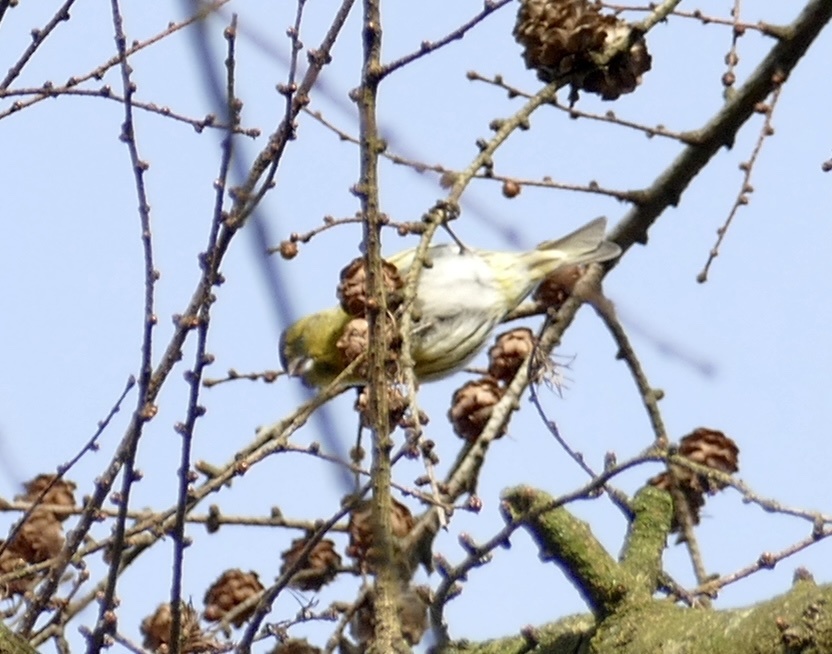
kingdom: Animalia
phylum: Chordata
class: Aves
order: Passeriformes
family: Fringillidae
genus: Spinus
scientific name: Spinus spinus
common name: Eurasian siskin
